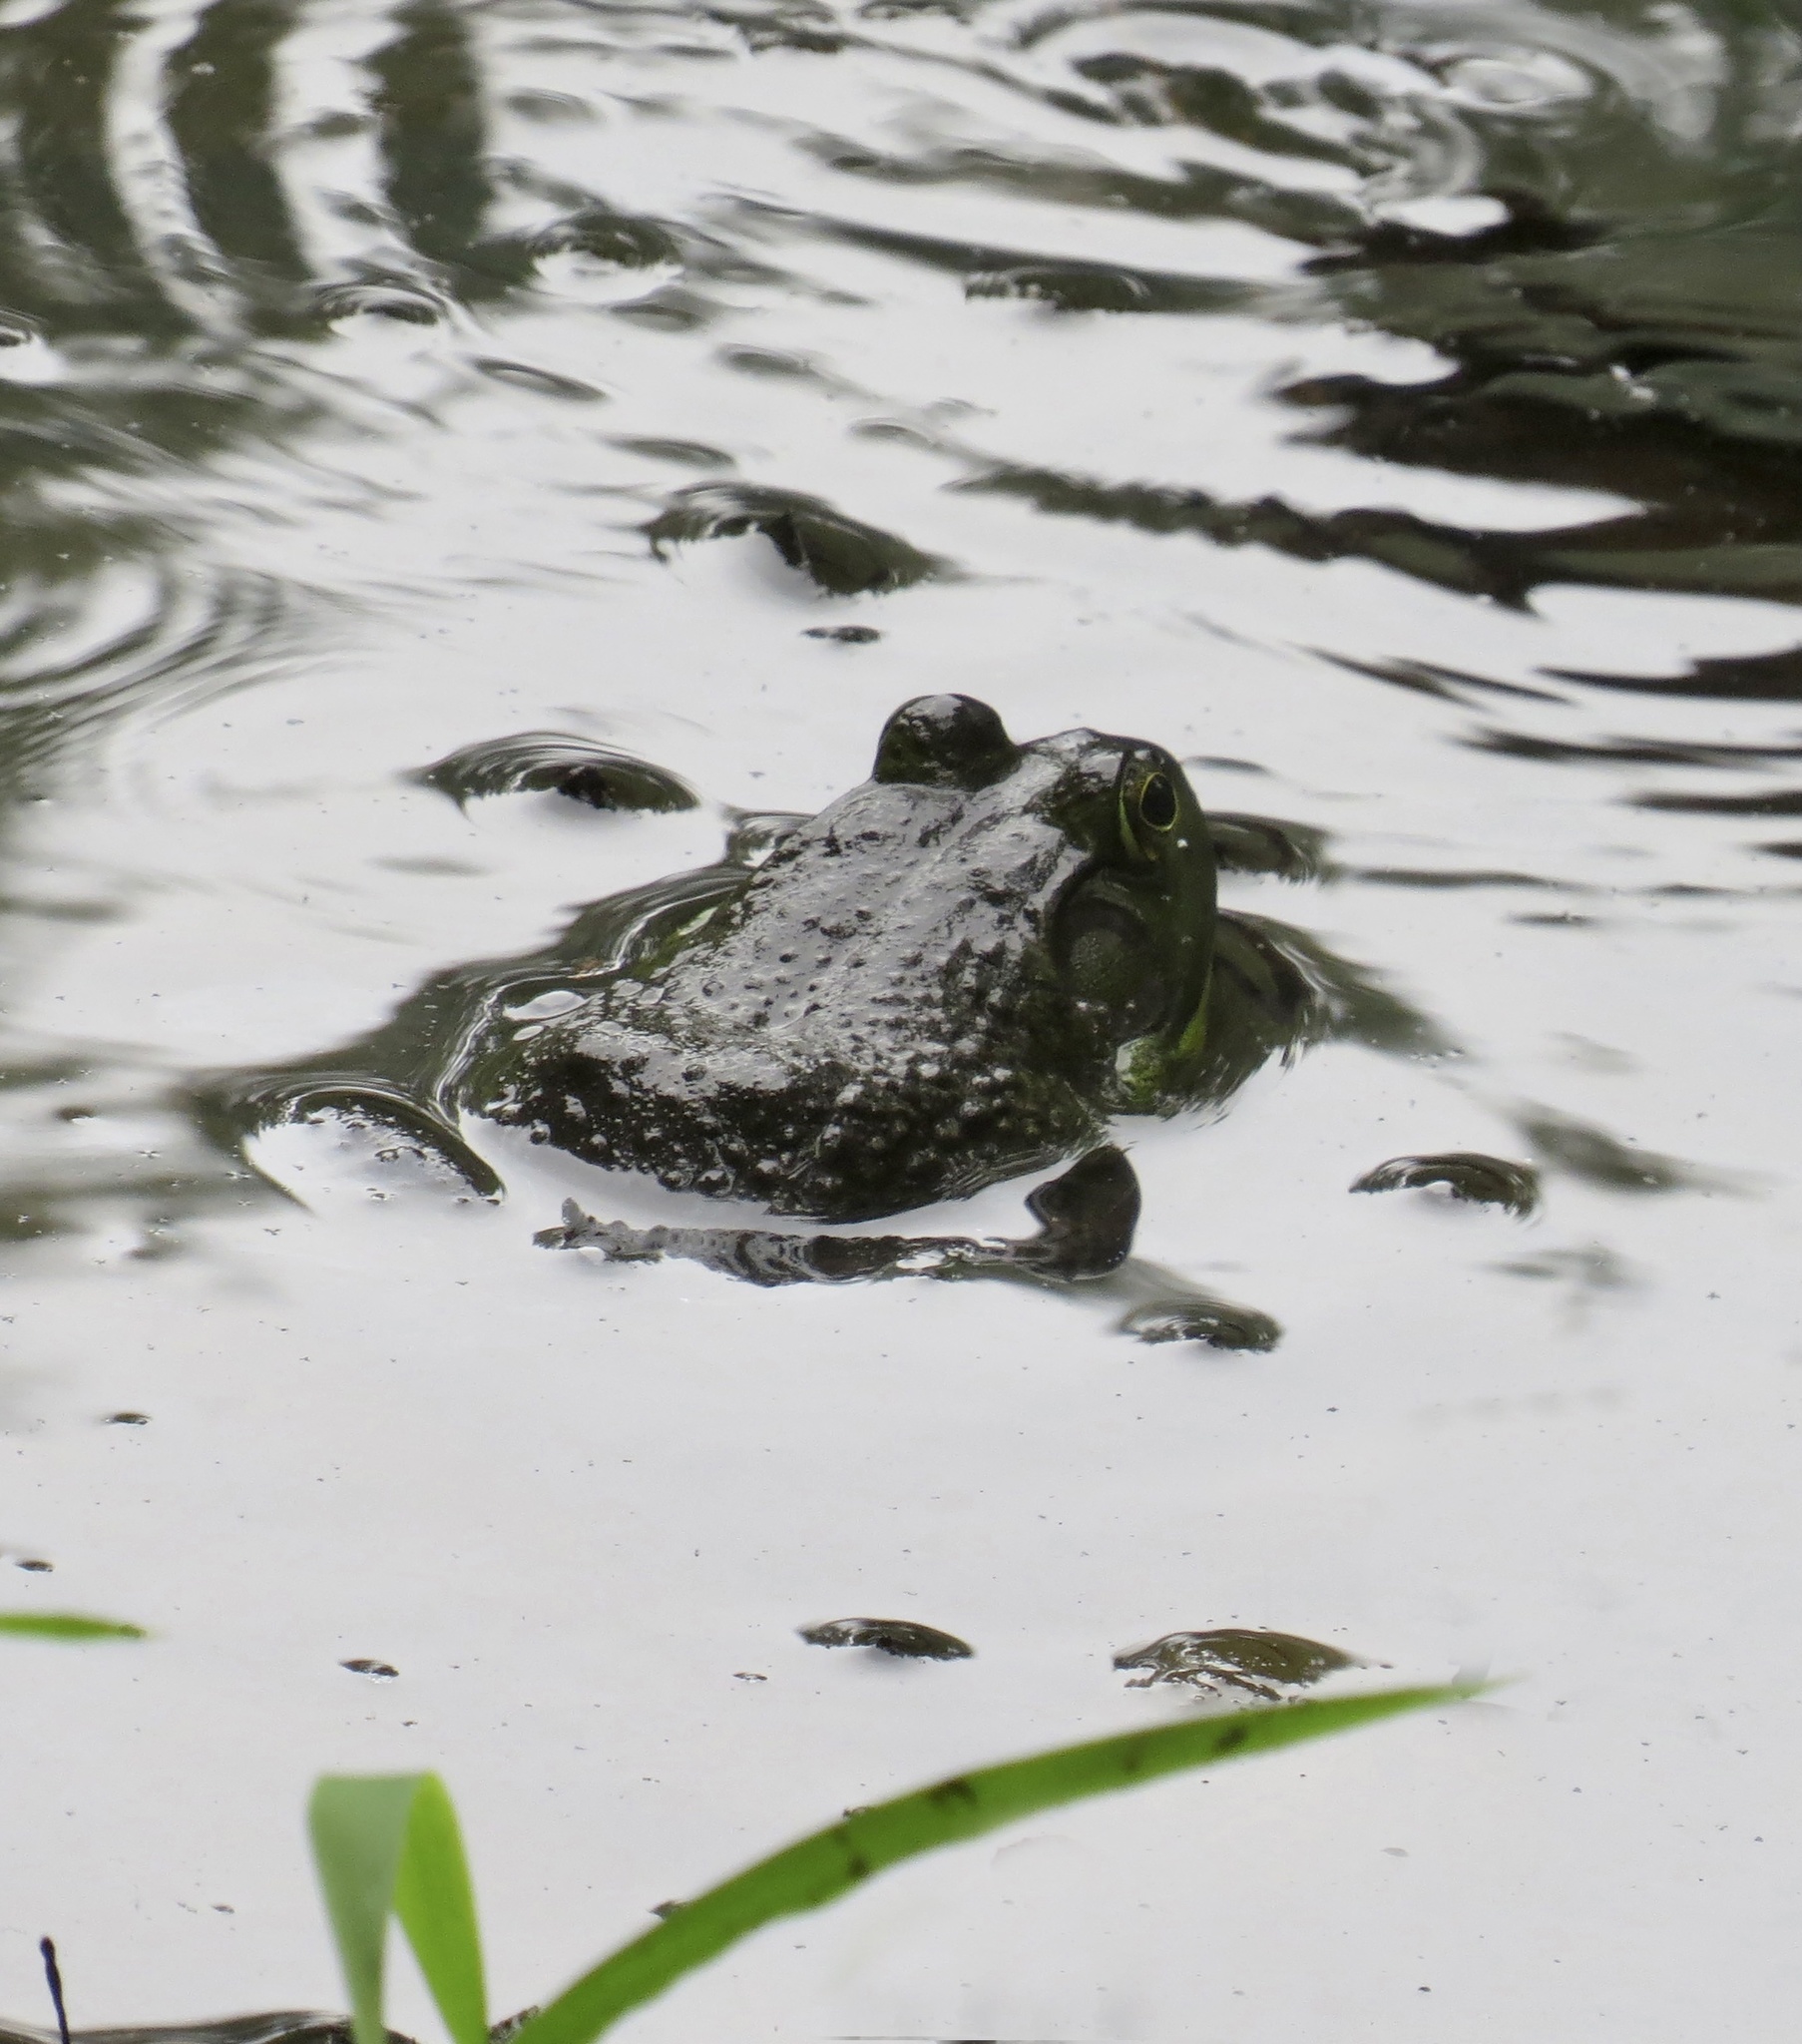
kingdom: Animalia
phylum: Chordata
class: Amphibia
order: Anura
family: Ranidae
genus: Lithobates
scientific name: Lithobates catesbeianus
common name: American bullfrog
